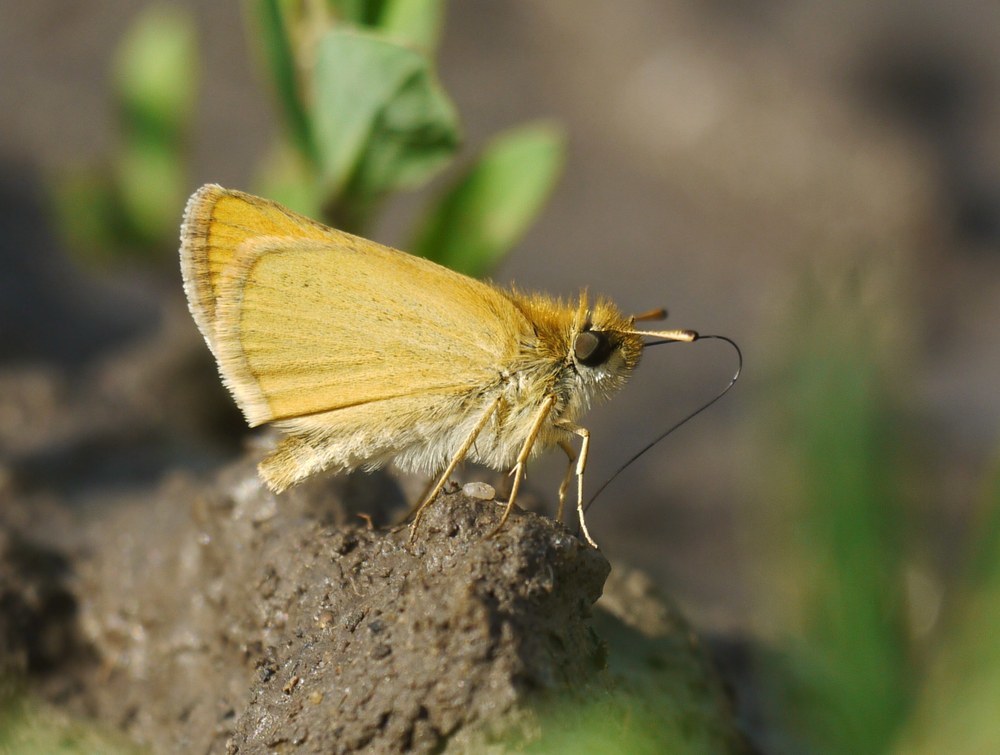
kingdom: Animalia
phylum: Arthropoda
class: Insecta
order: Lepidoptera
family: Hesperiidae
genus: Thymelicus
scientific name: Thymelicus lineola
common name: Essex skipper
